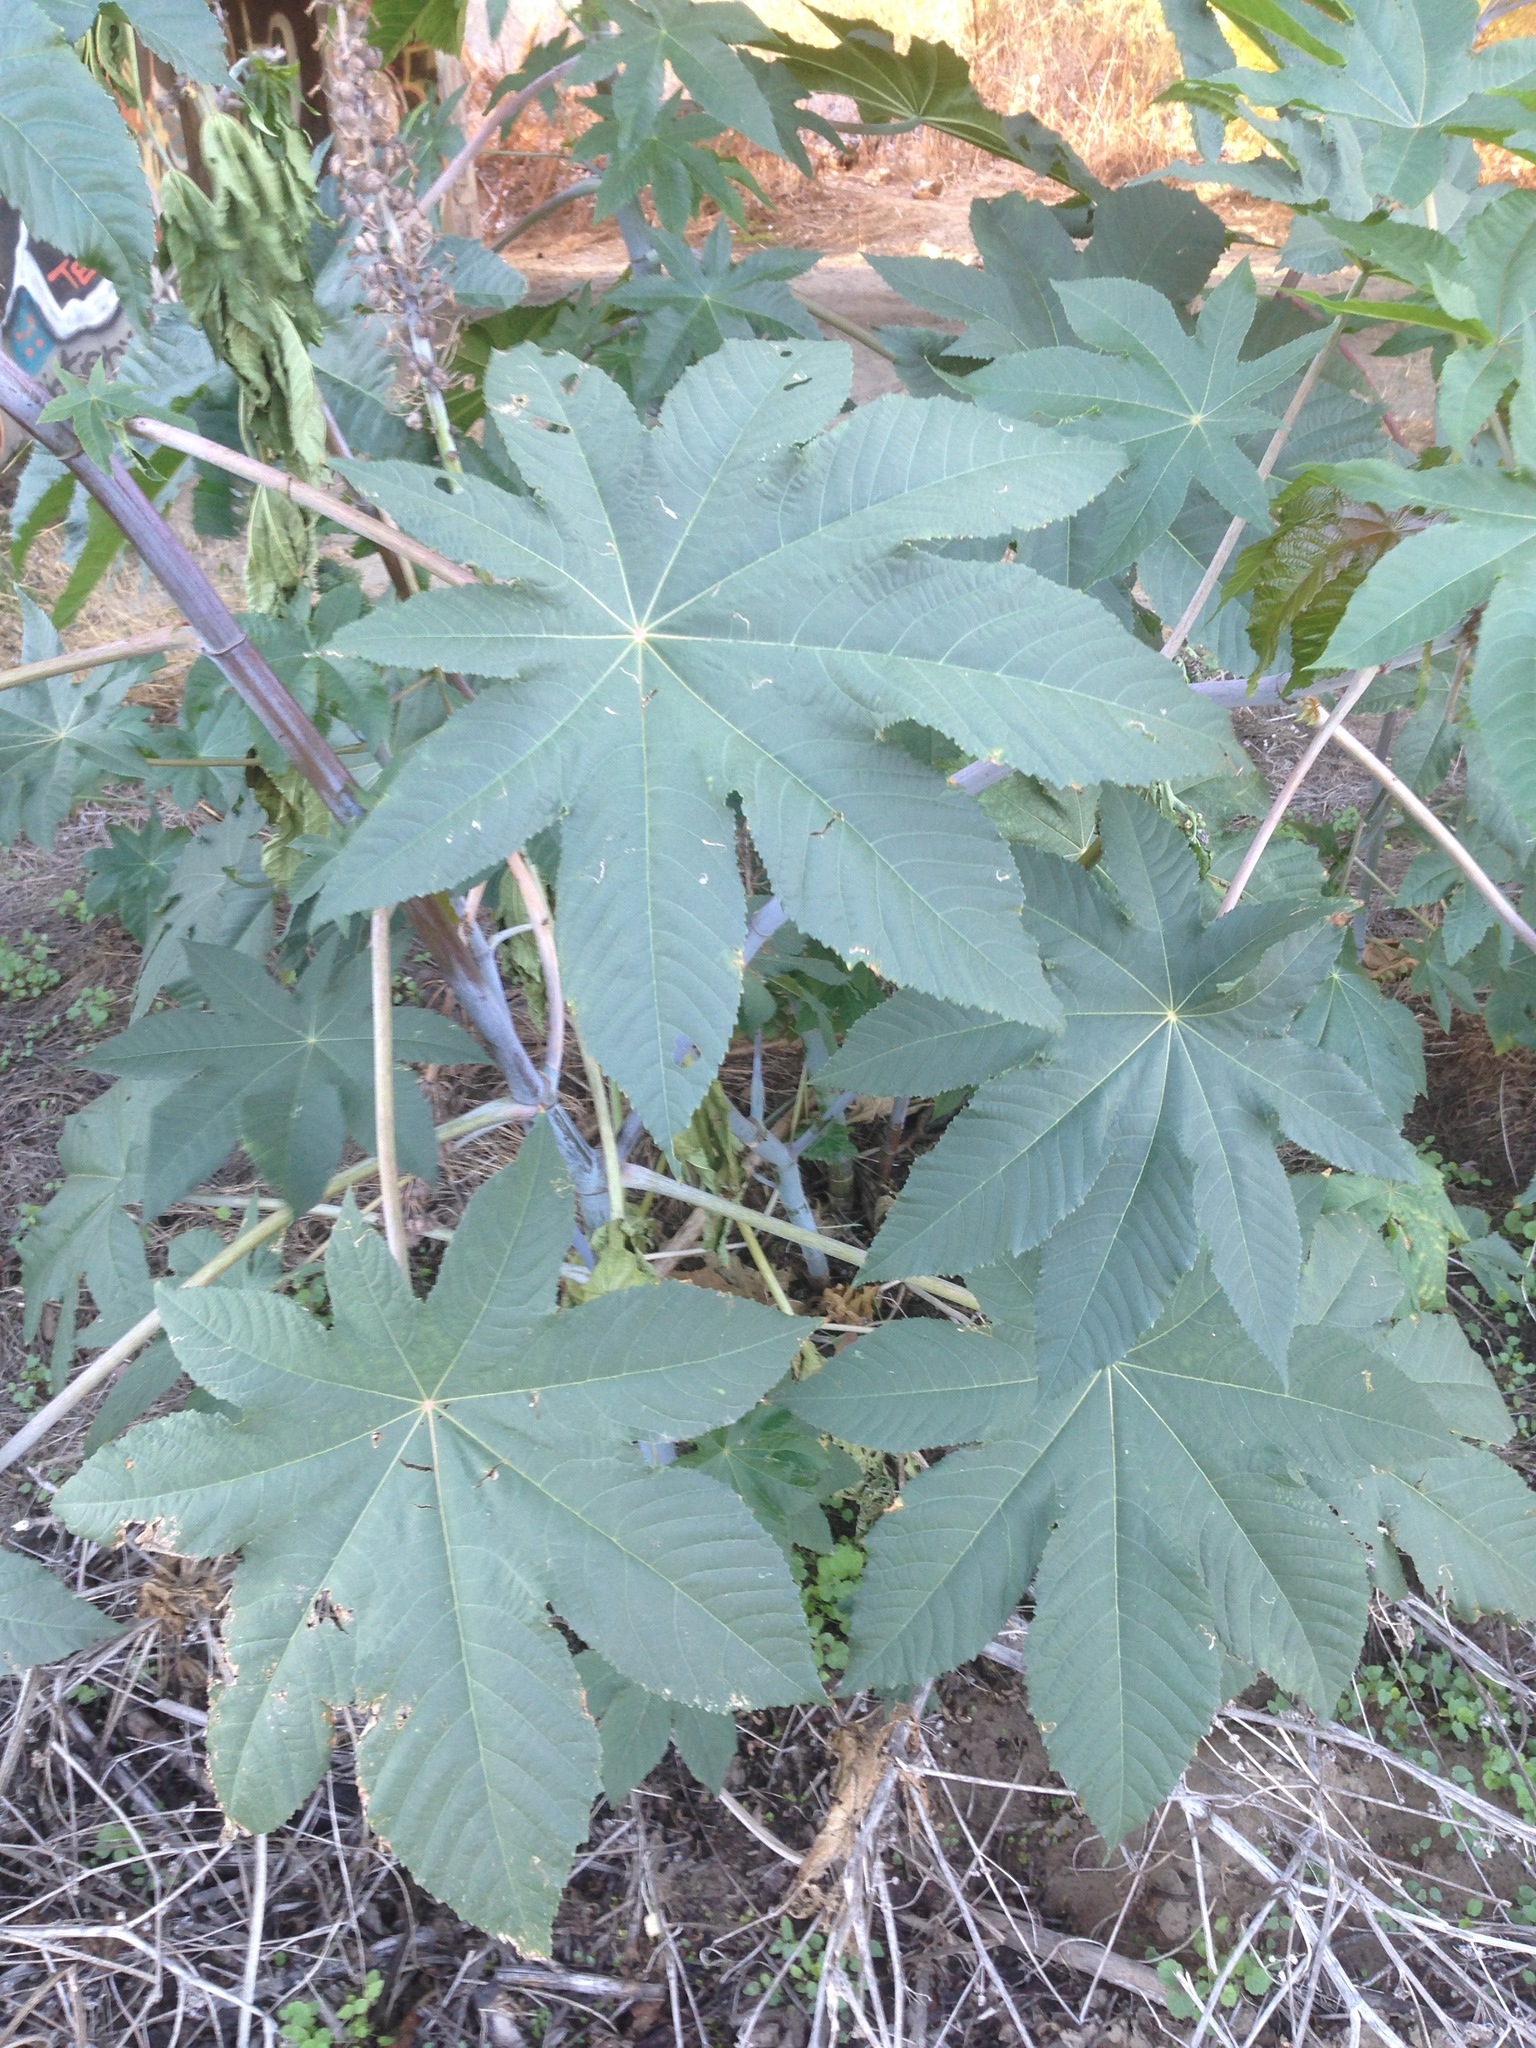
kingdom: Plantae
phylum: Tracheophyta
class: Magnoliopsida
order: Malpighiales
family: Euphorbiaceae
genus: Ricinus
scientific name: Ricinus communis
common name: Castor-oil-plant
